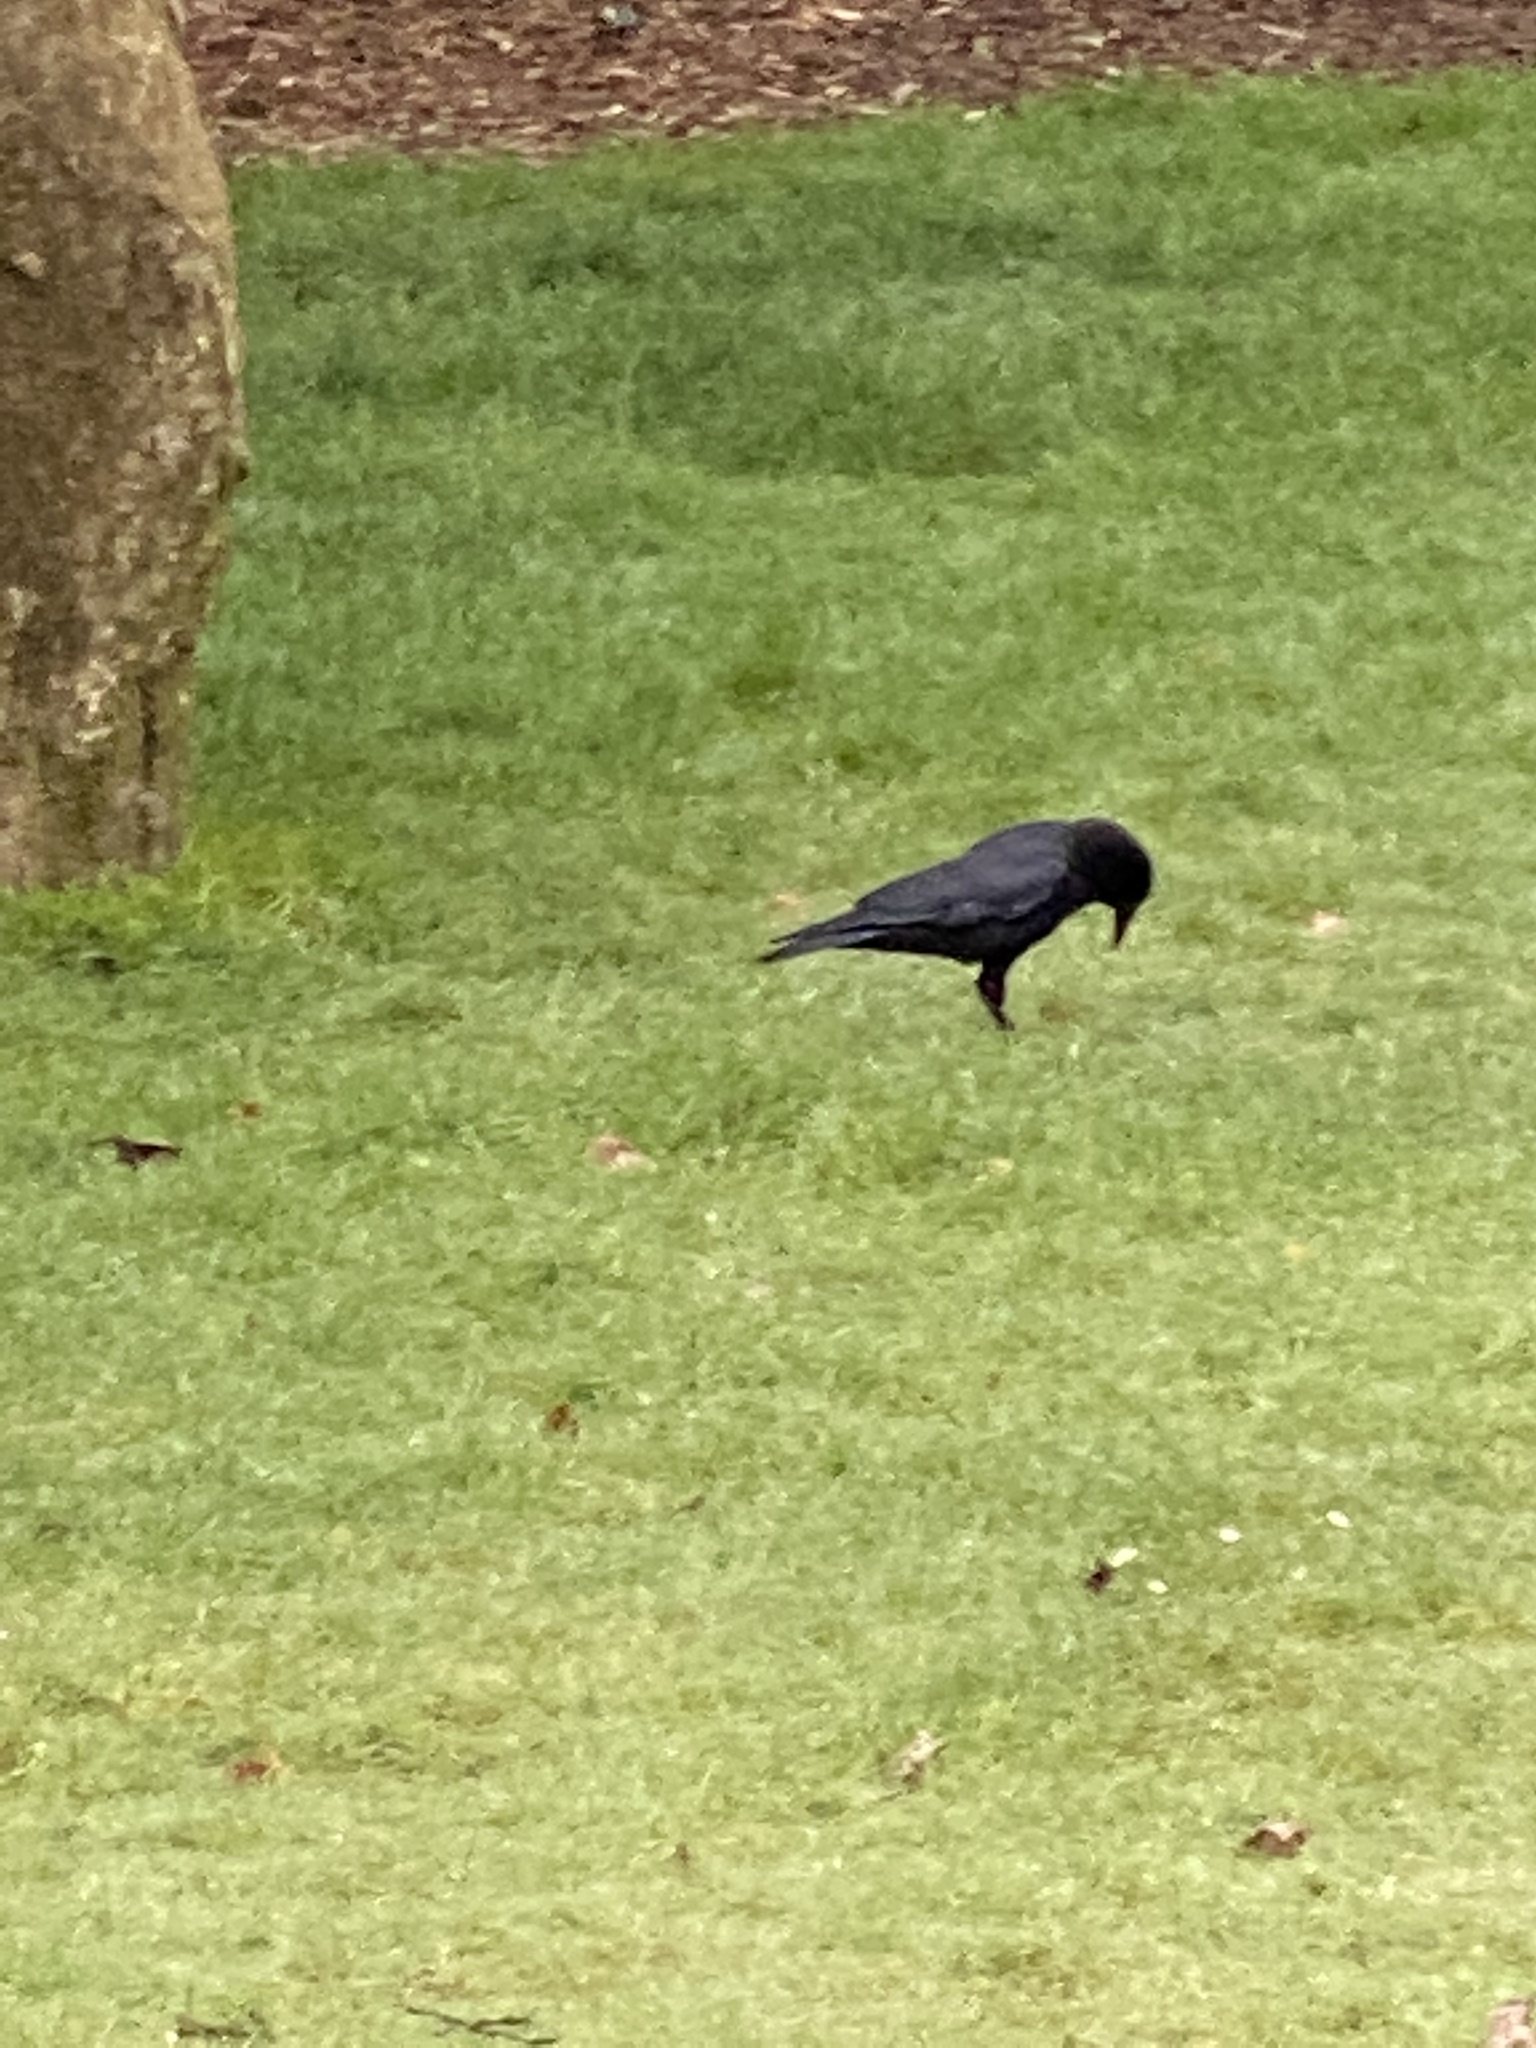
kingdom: Animalia
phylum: Chordata
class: Aves
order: Passeriformes
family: Corvidae
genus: Corvus
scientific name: Corvus brachyrhynchos
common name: American crow
